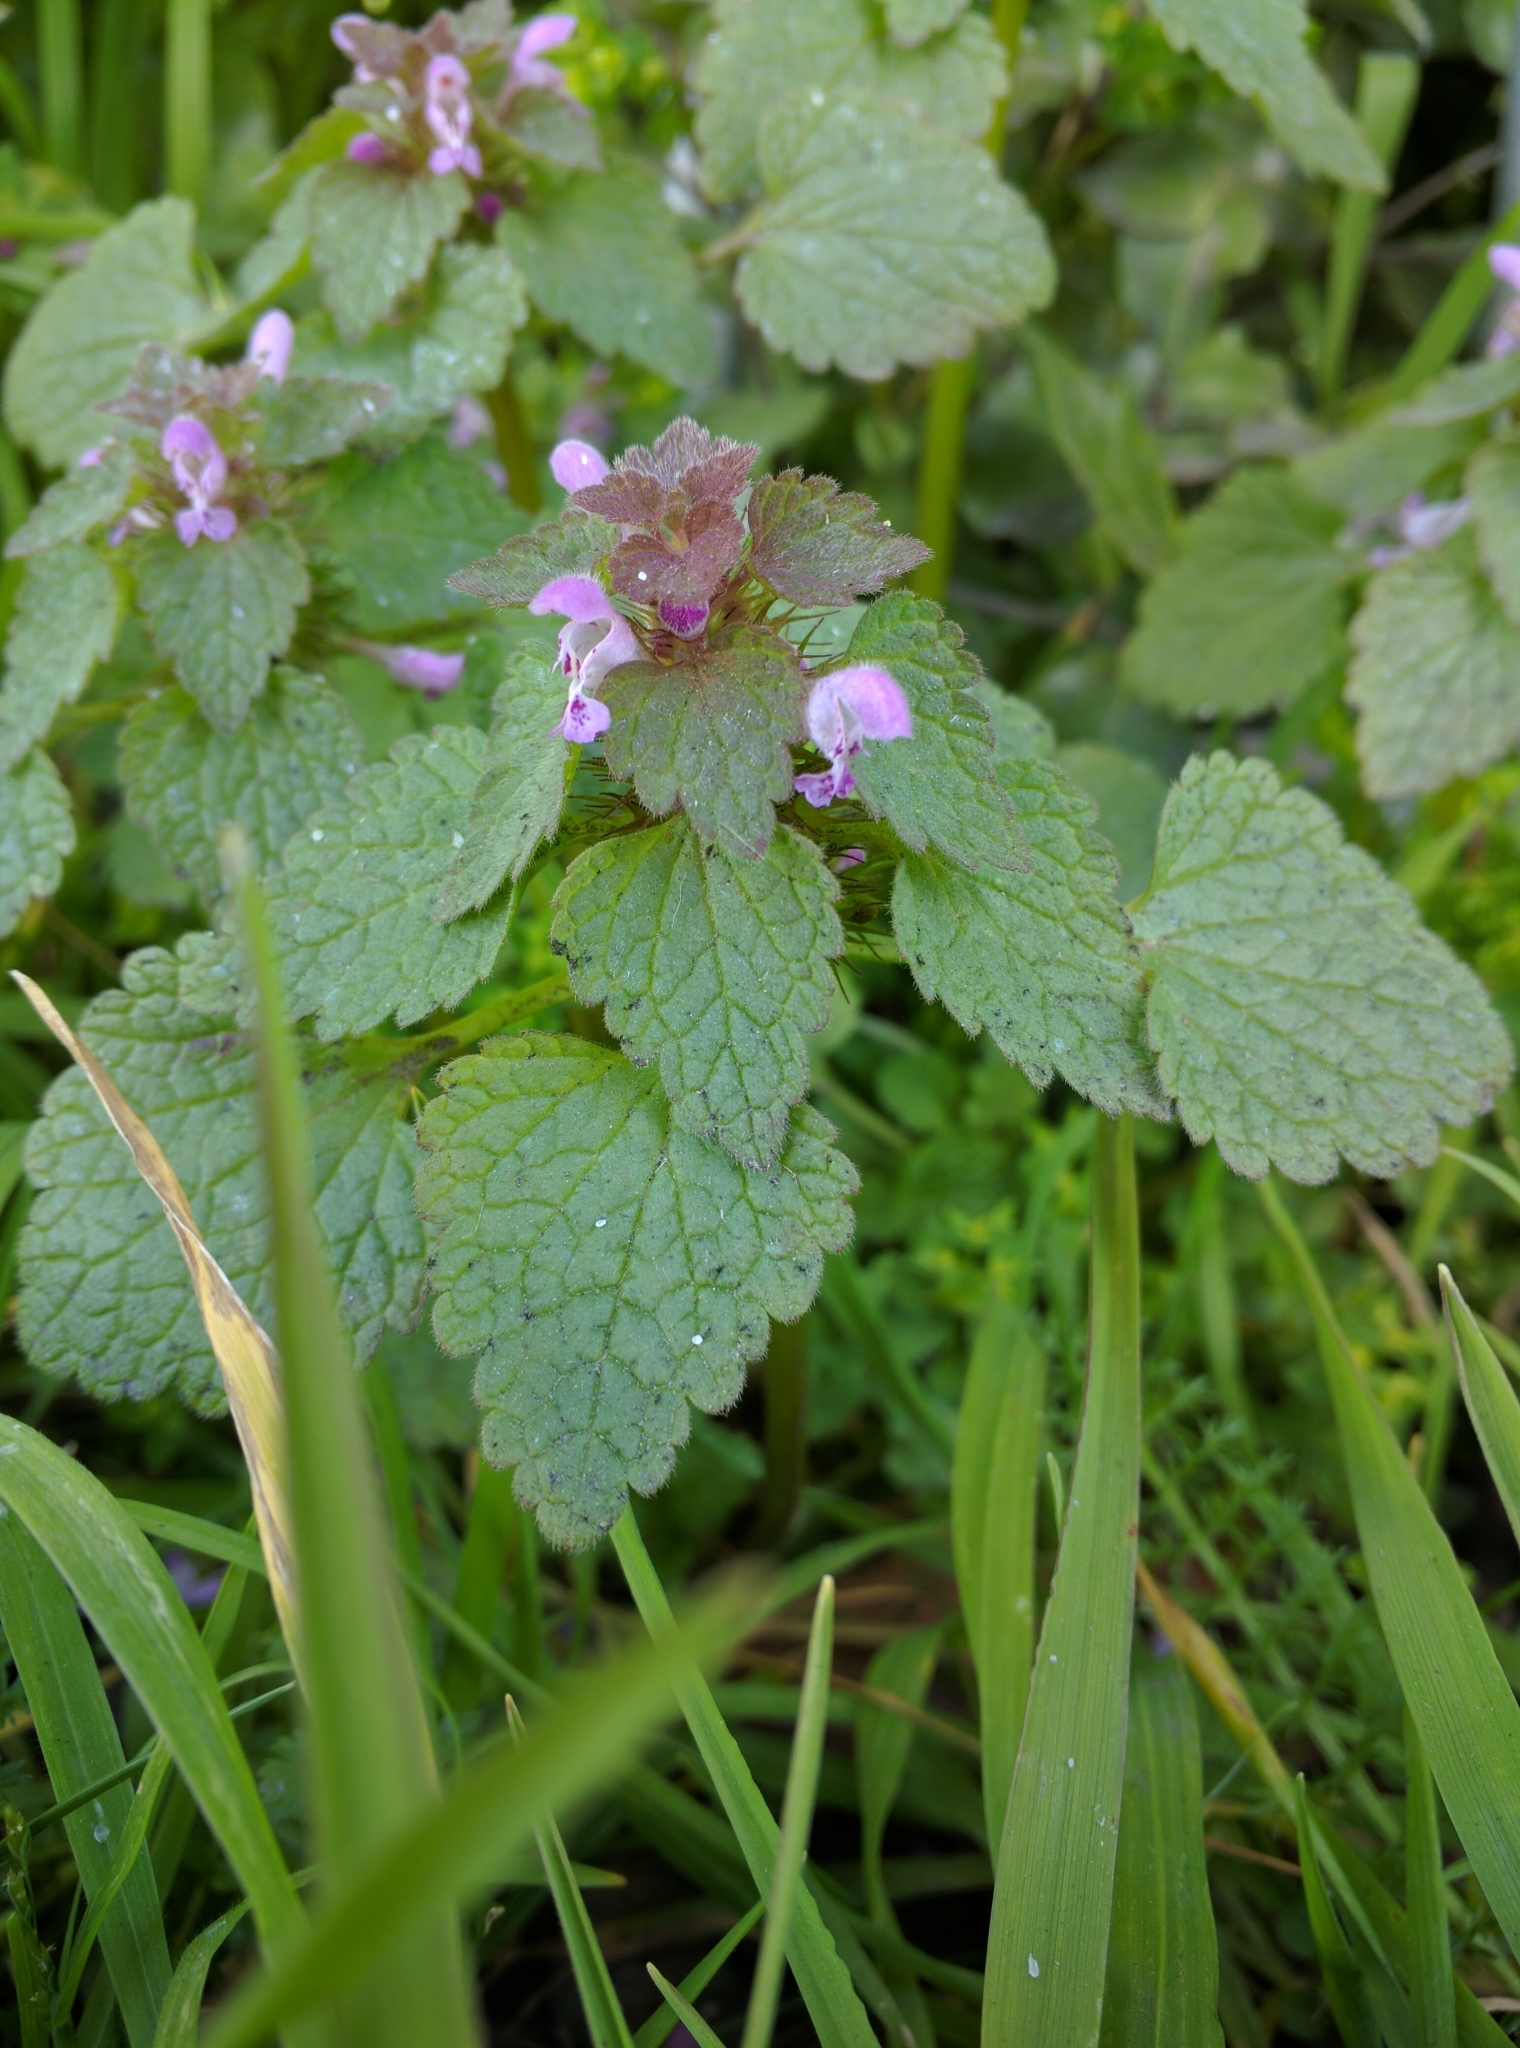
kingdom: Plantae
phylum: Tracheophyta
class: Magnoliopsida
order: Lamiales
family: Lamiaceae
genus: Lamium
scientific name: Lamium purpureum
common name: Red dead-nettle
